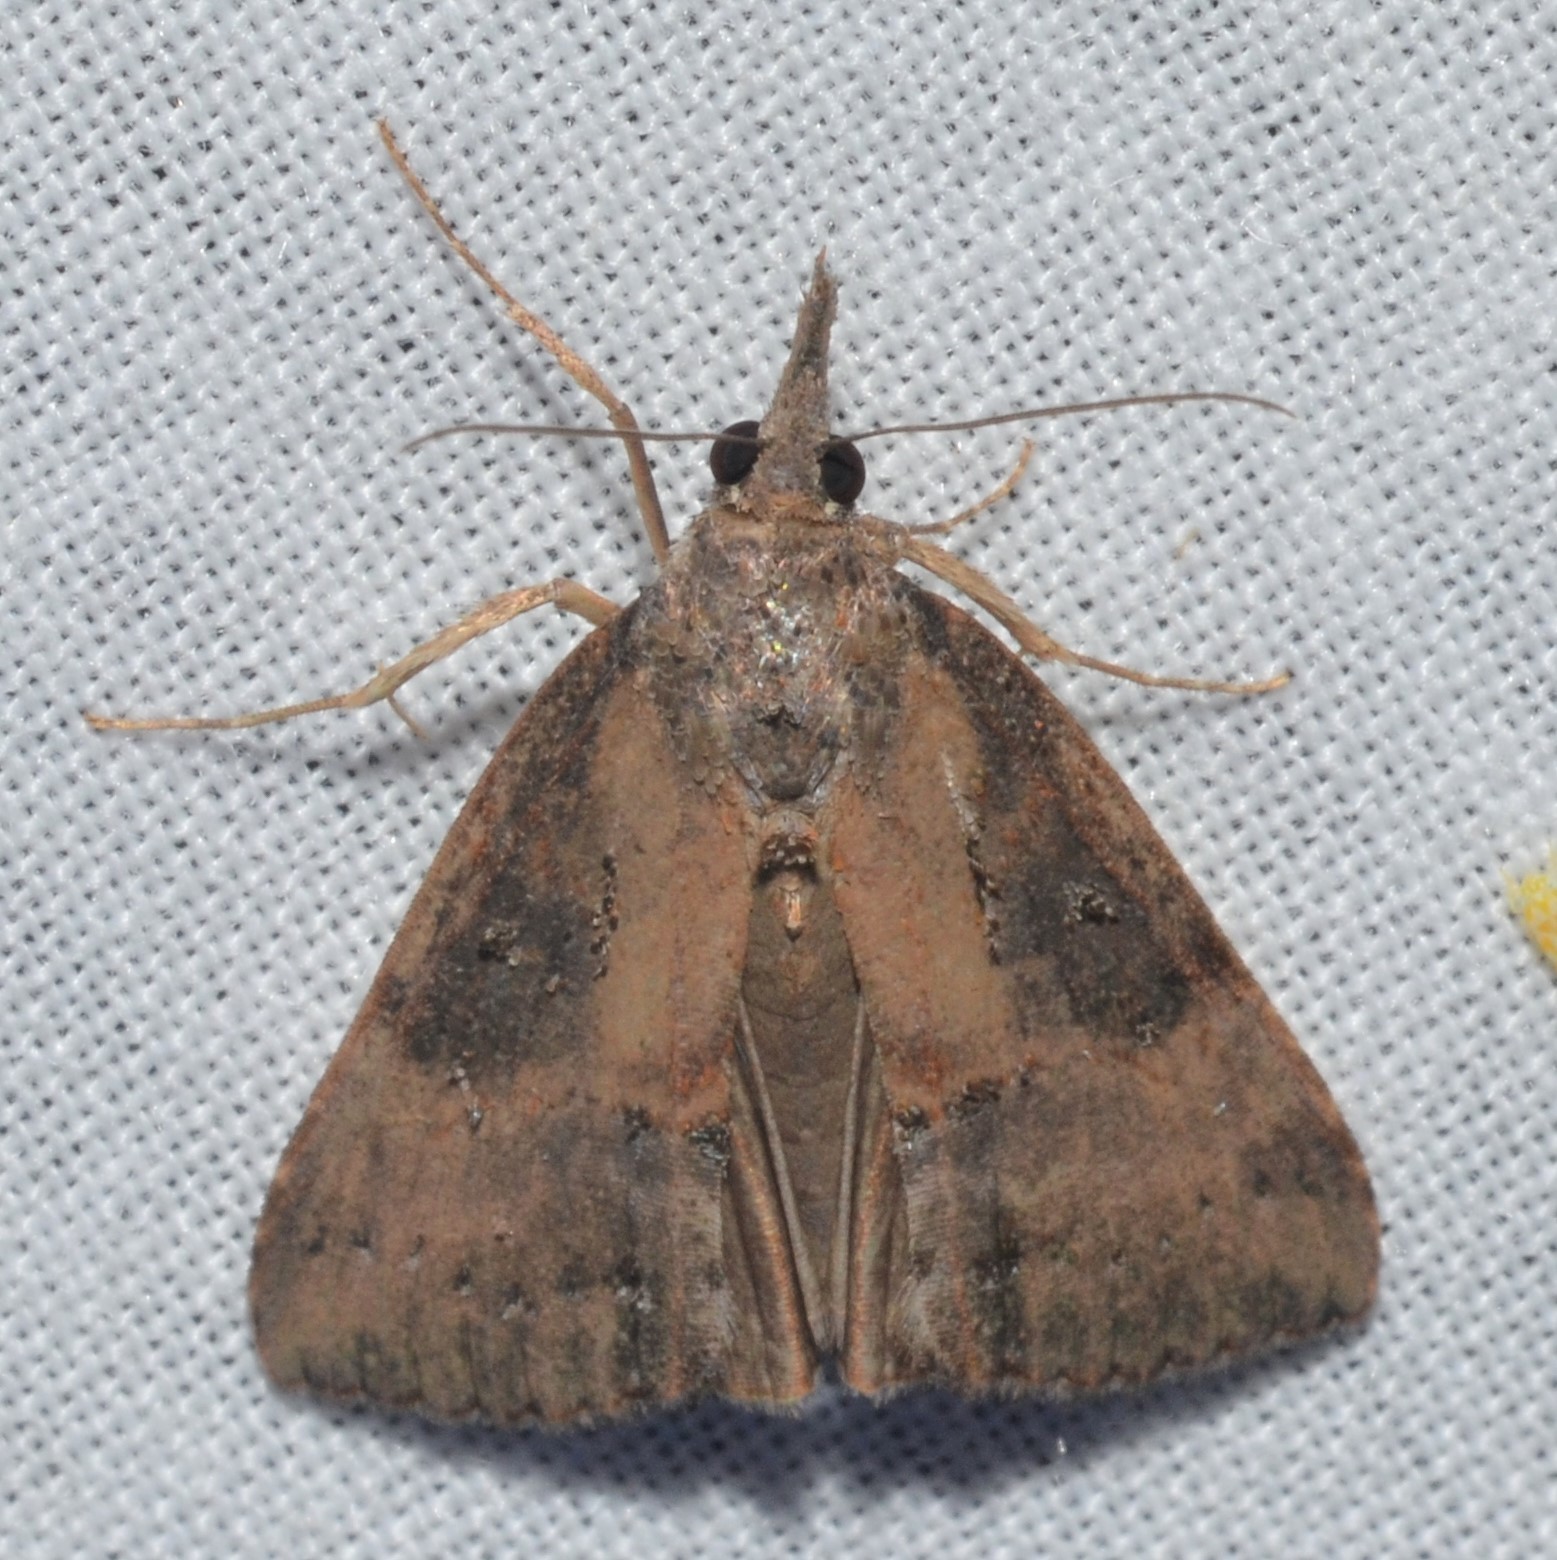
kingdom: Animalia
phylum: Arthropoda
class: Insecta
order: Lepidoptera
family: Erebidae
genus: Hypena
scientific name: Hypena scabra
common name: Green cloverworm
